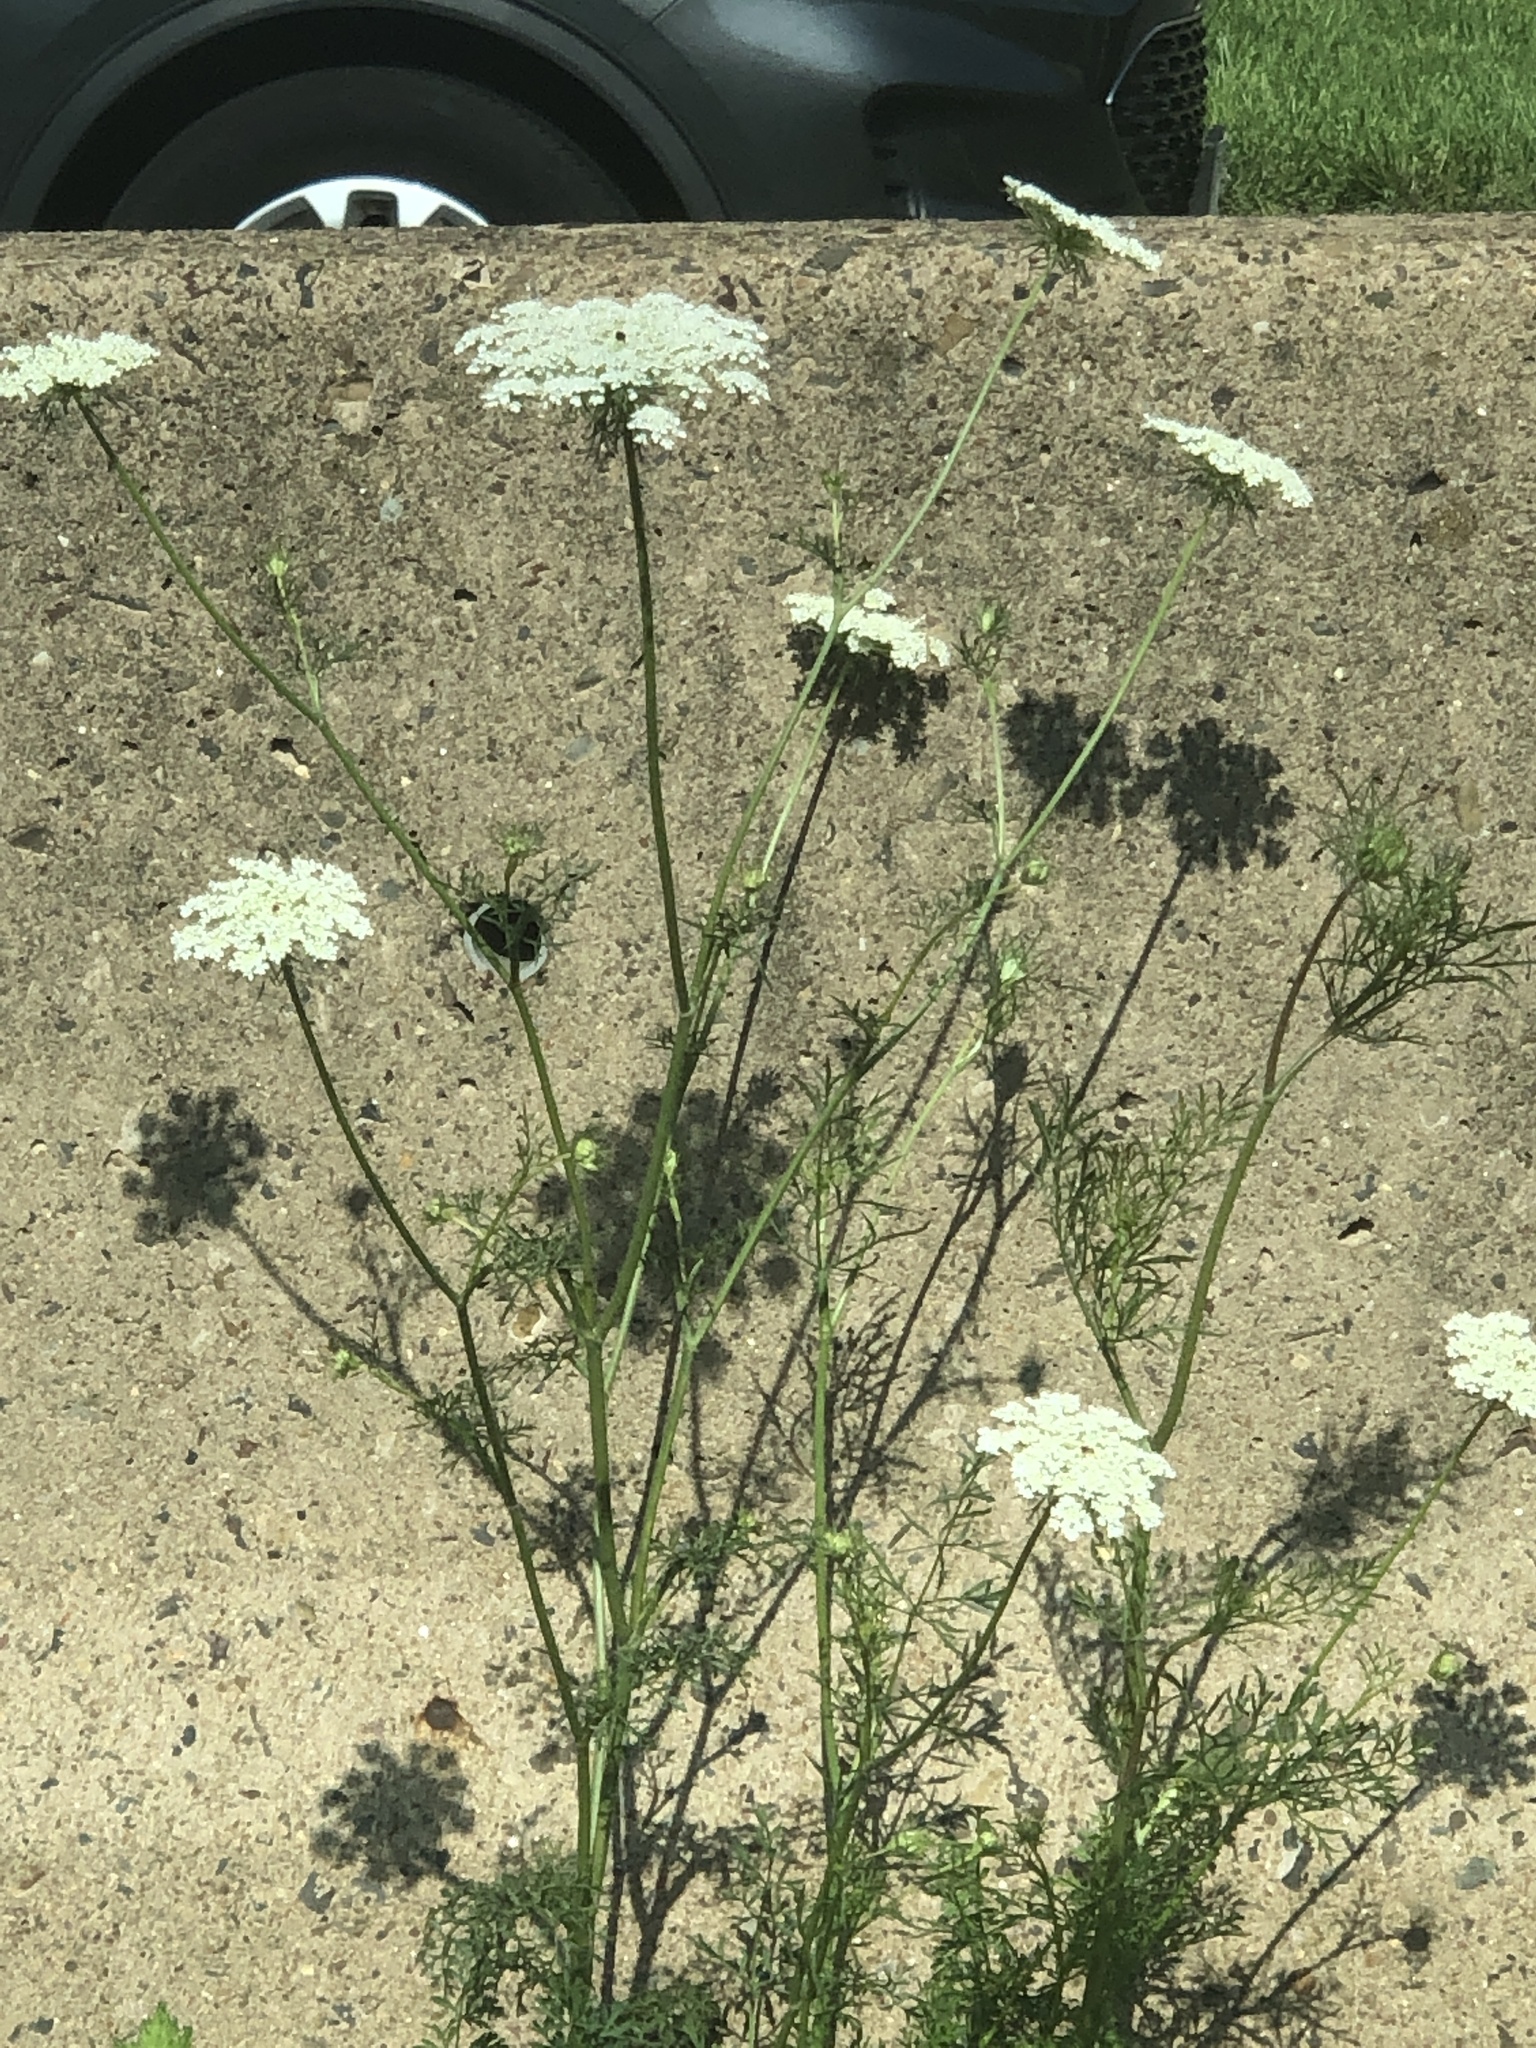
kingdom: Plantae
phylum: Tracheophyta
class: Magnoliopsida
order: Apiales
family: Apiaceae
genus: Daucus
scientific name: Daucus carota
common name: Wild carrot
